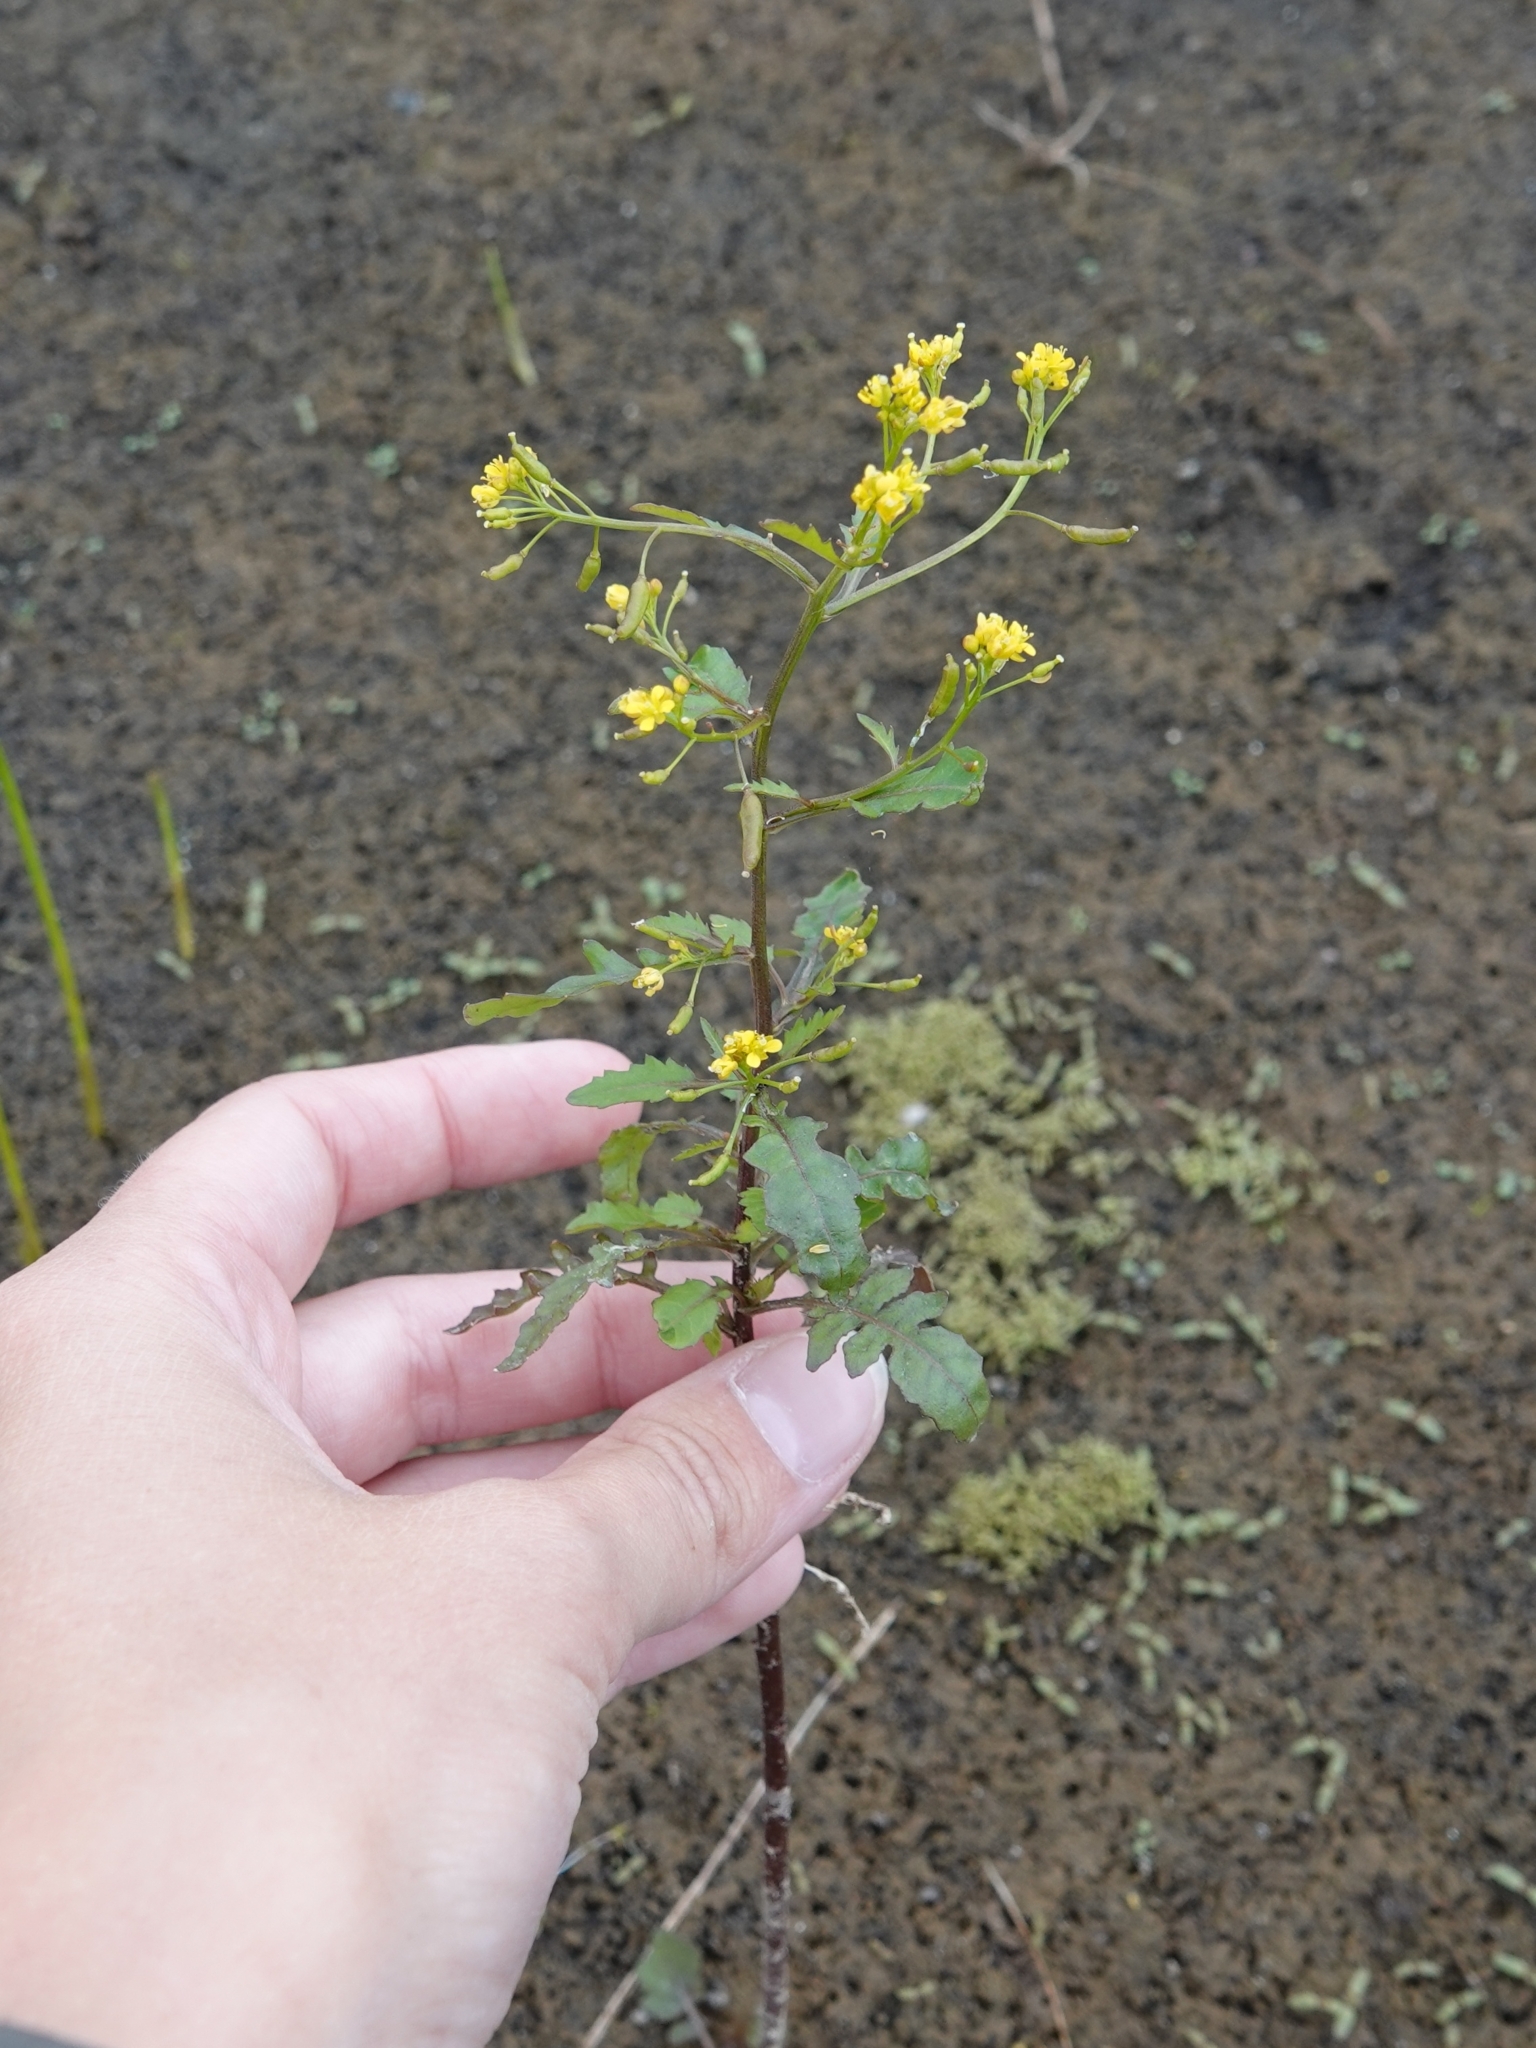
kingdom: Plantae
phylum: Tracheophyta
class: Magnoliopsida
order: Brassicales
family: Brassicaceae
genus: Rorippa
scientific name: Rorippa palustris
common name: Marsh yellow-cress
